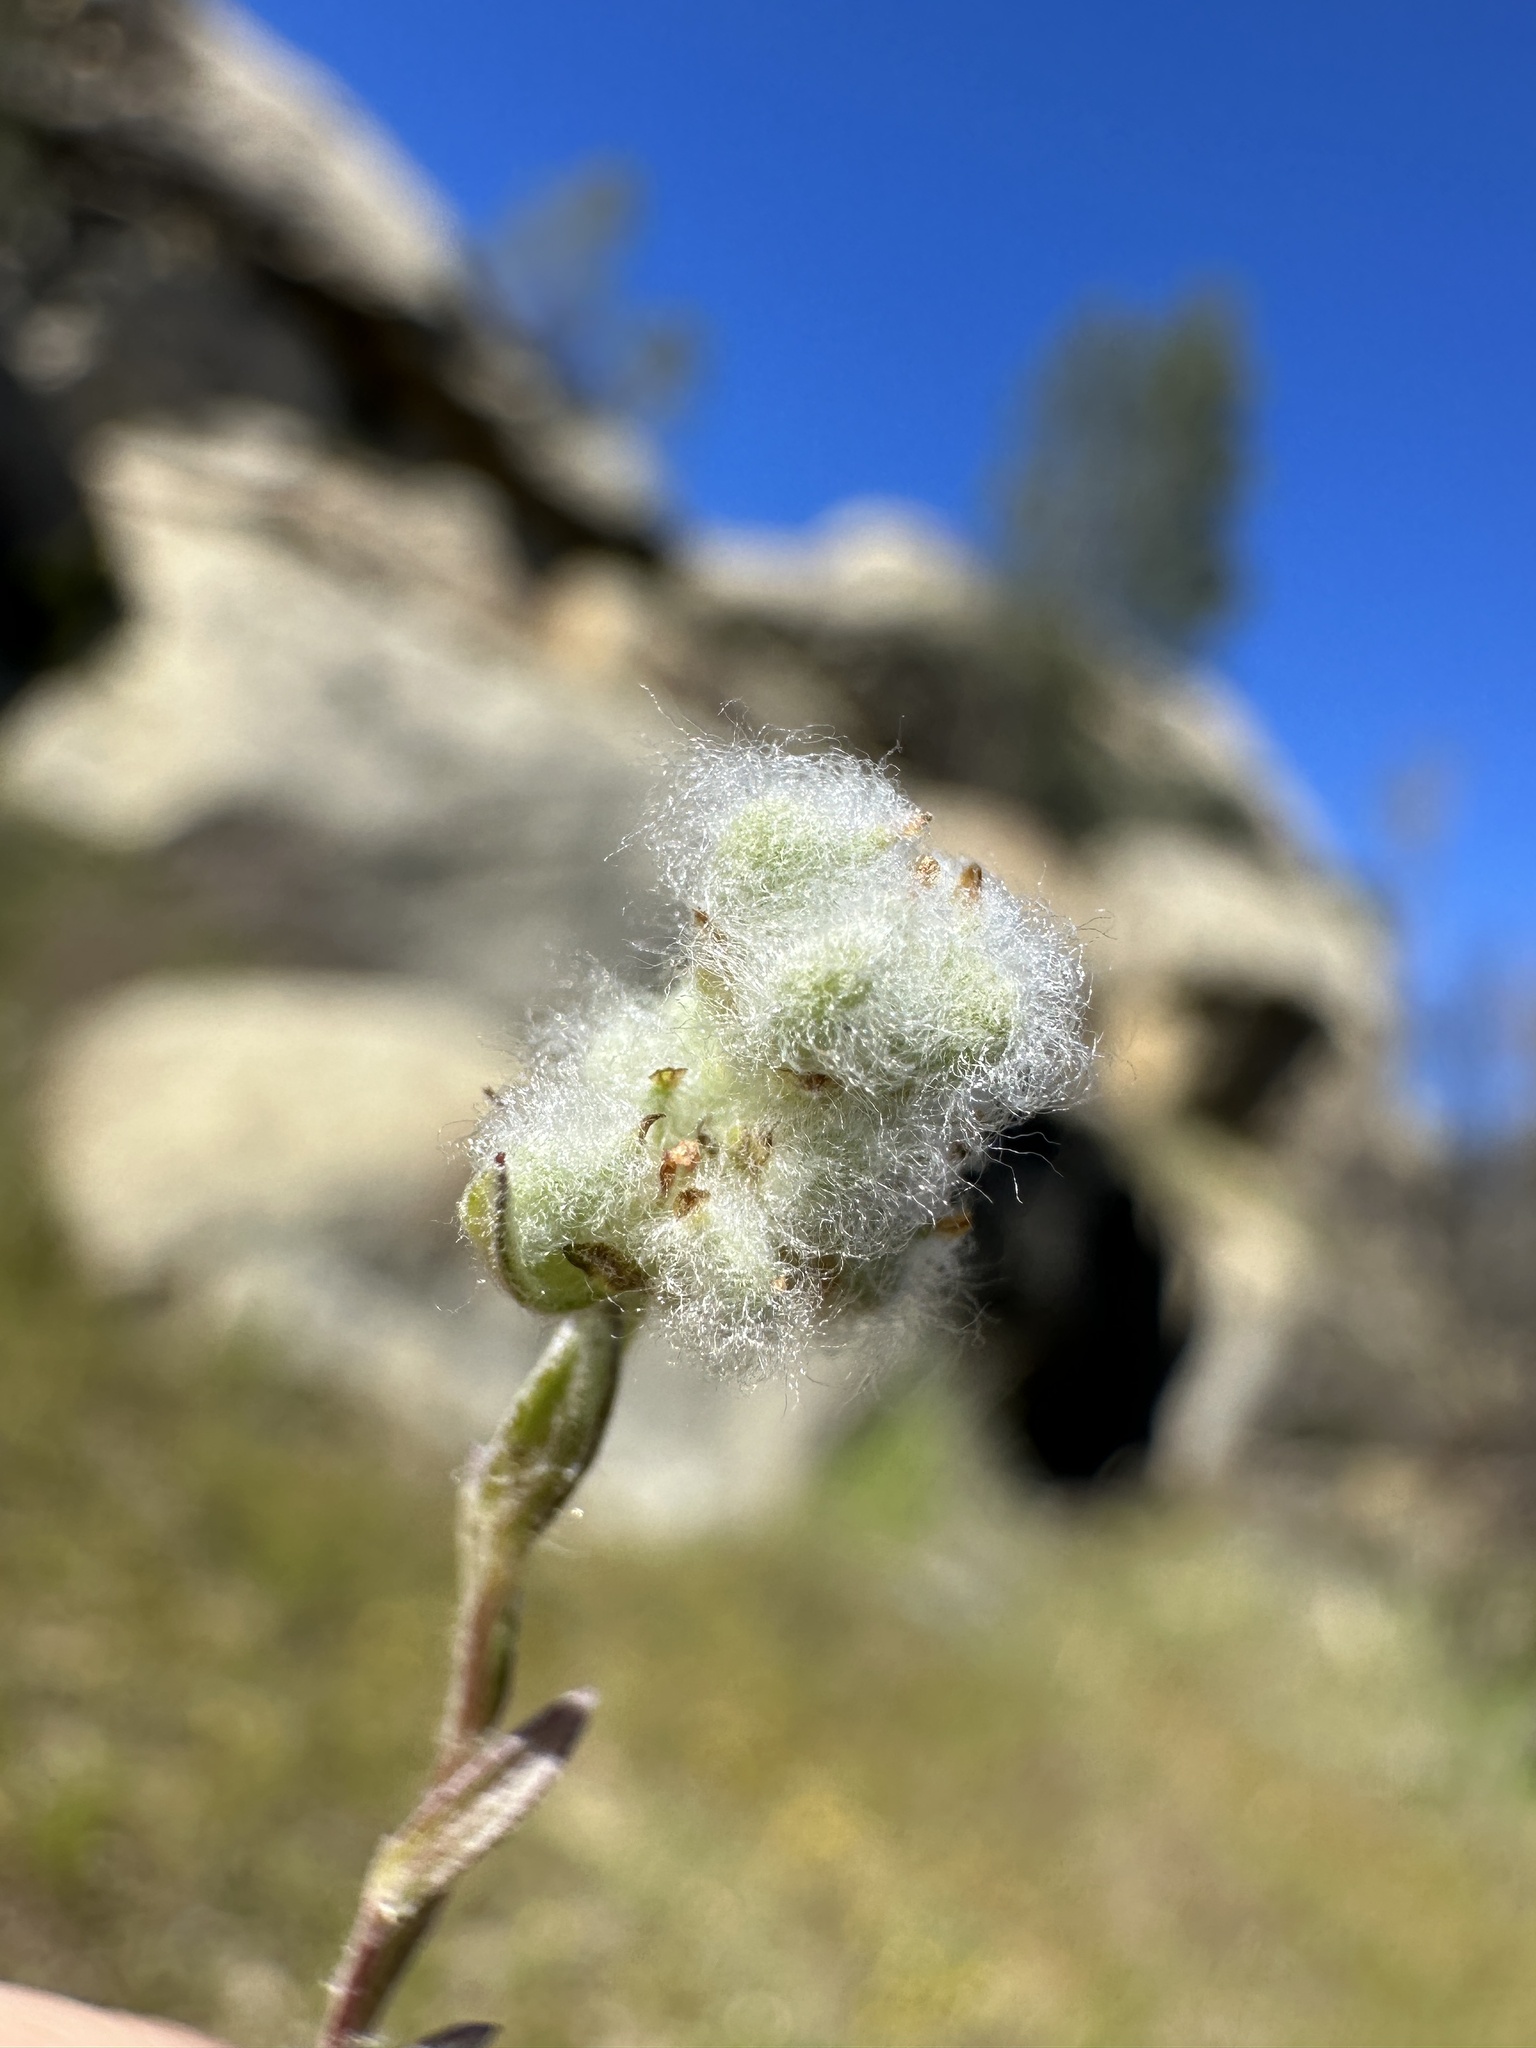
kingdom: Plantae
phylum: Tracheophyta
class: Magnoliopsida
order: Asterales
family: Asteraceae
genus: Bombycilaena
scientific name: Bombycilaena californica
